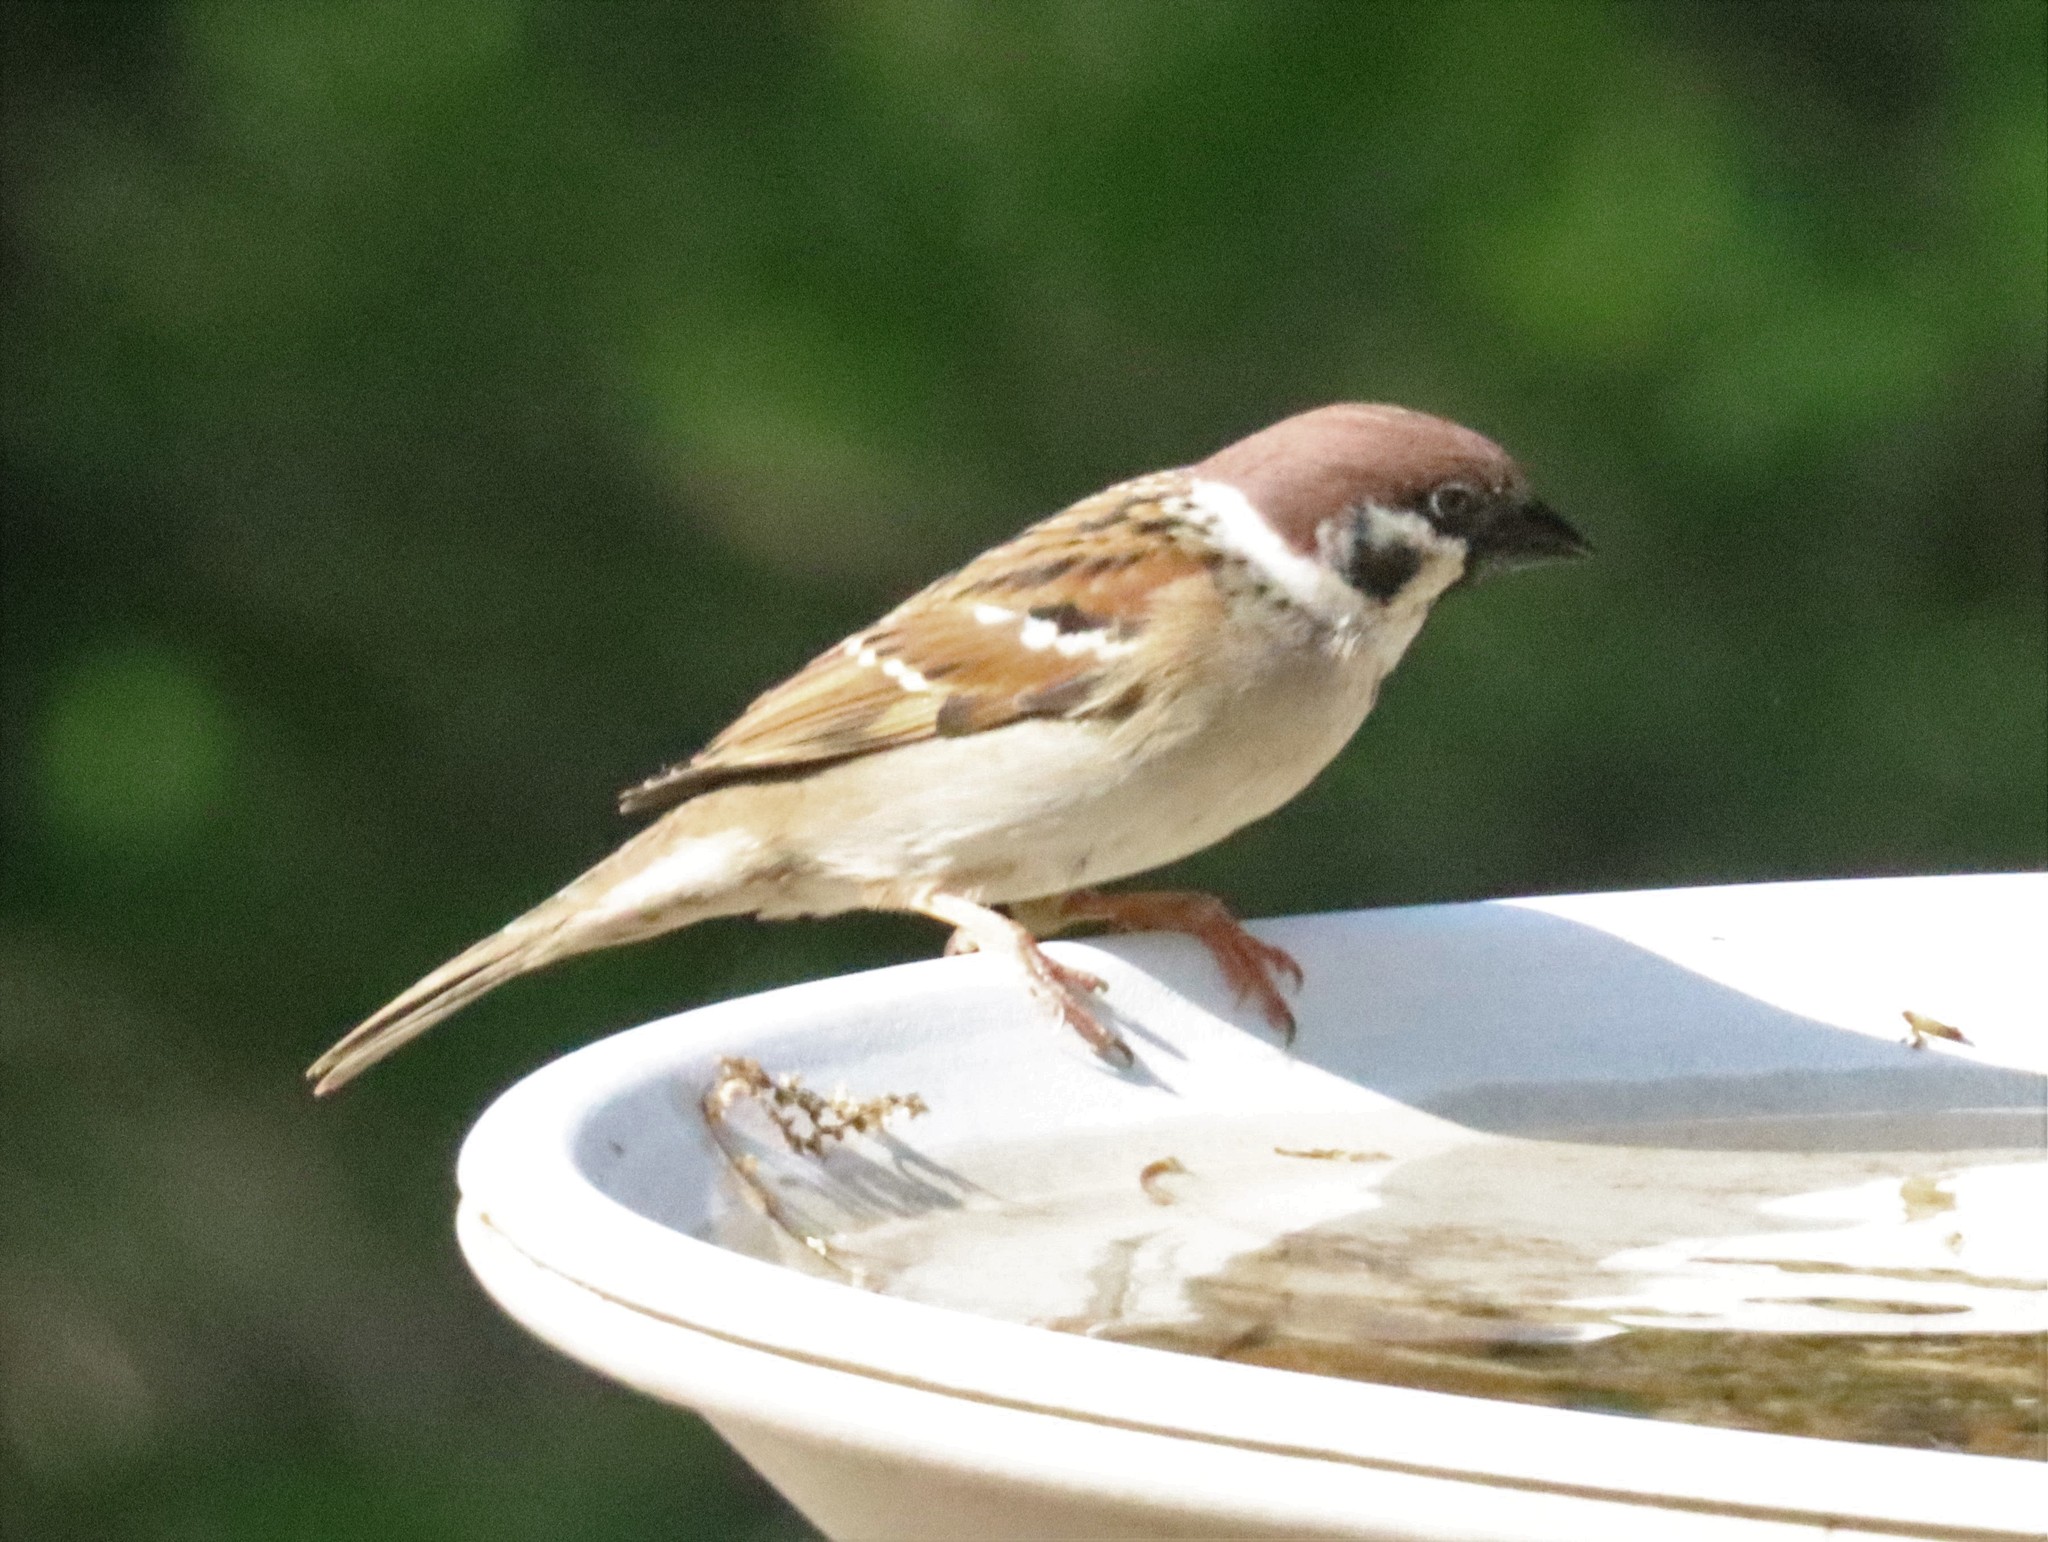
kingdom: Animalia
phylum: Chordata
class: Aves
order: Passeriformes
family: Passeridae
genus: Passer
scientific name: Passer montanus
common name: Eurasian tree sparrow
